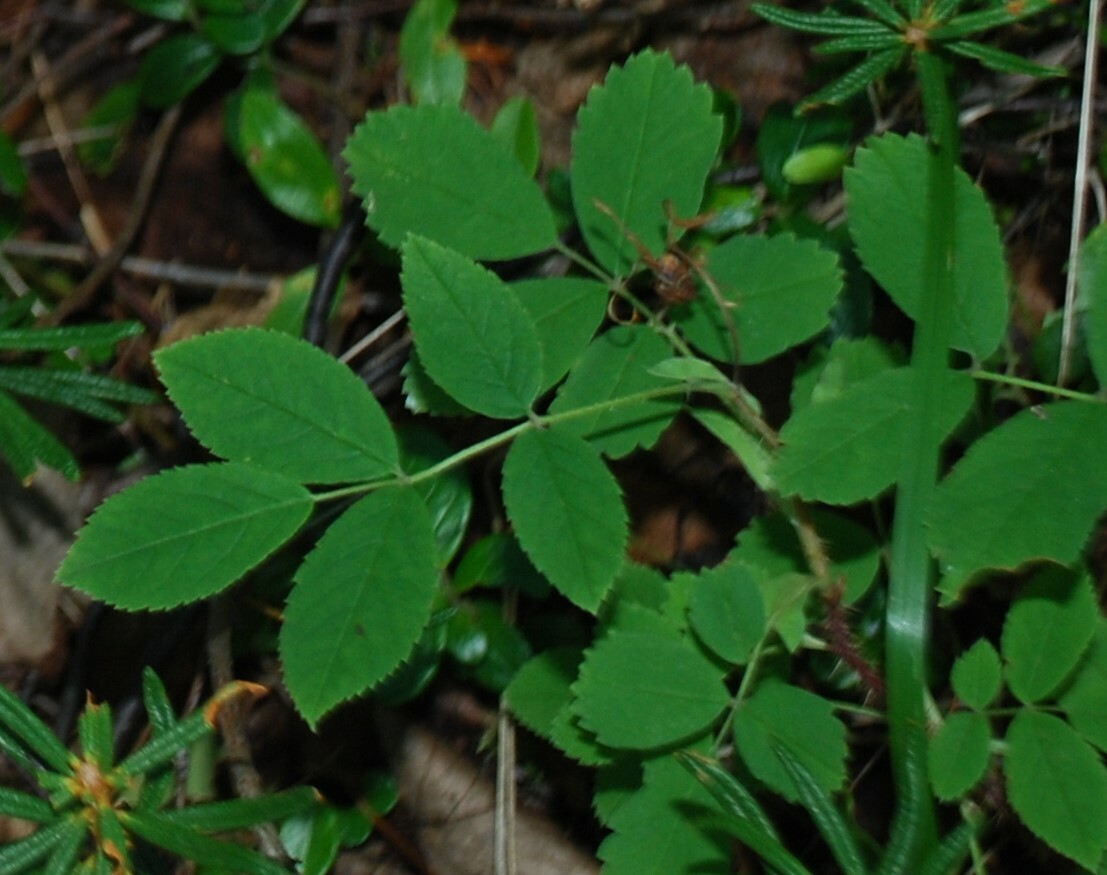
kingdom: Plantae
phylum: Tracheophyta
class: Magnoliopsida
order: Rosales
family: Rosaceae
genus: Rosa
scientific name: Rosa acicularis
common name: Prickly rose
